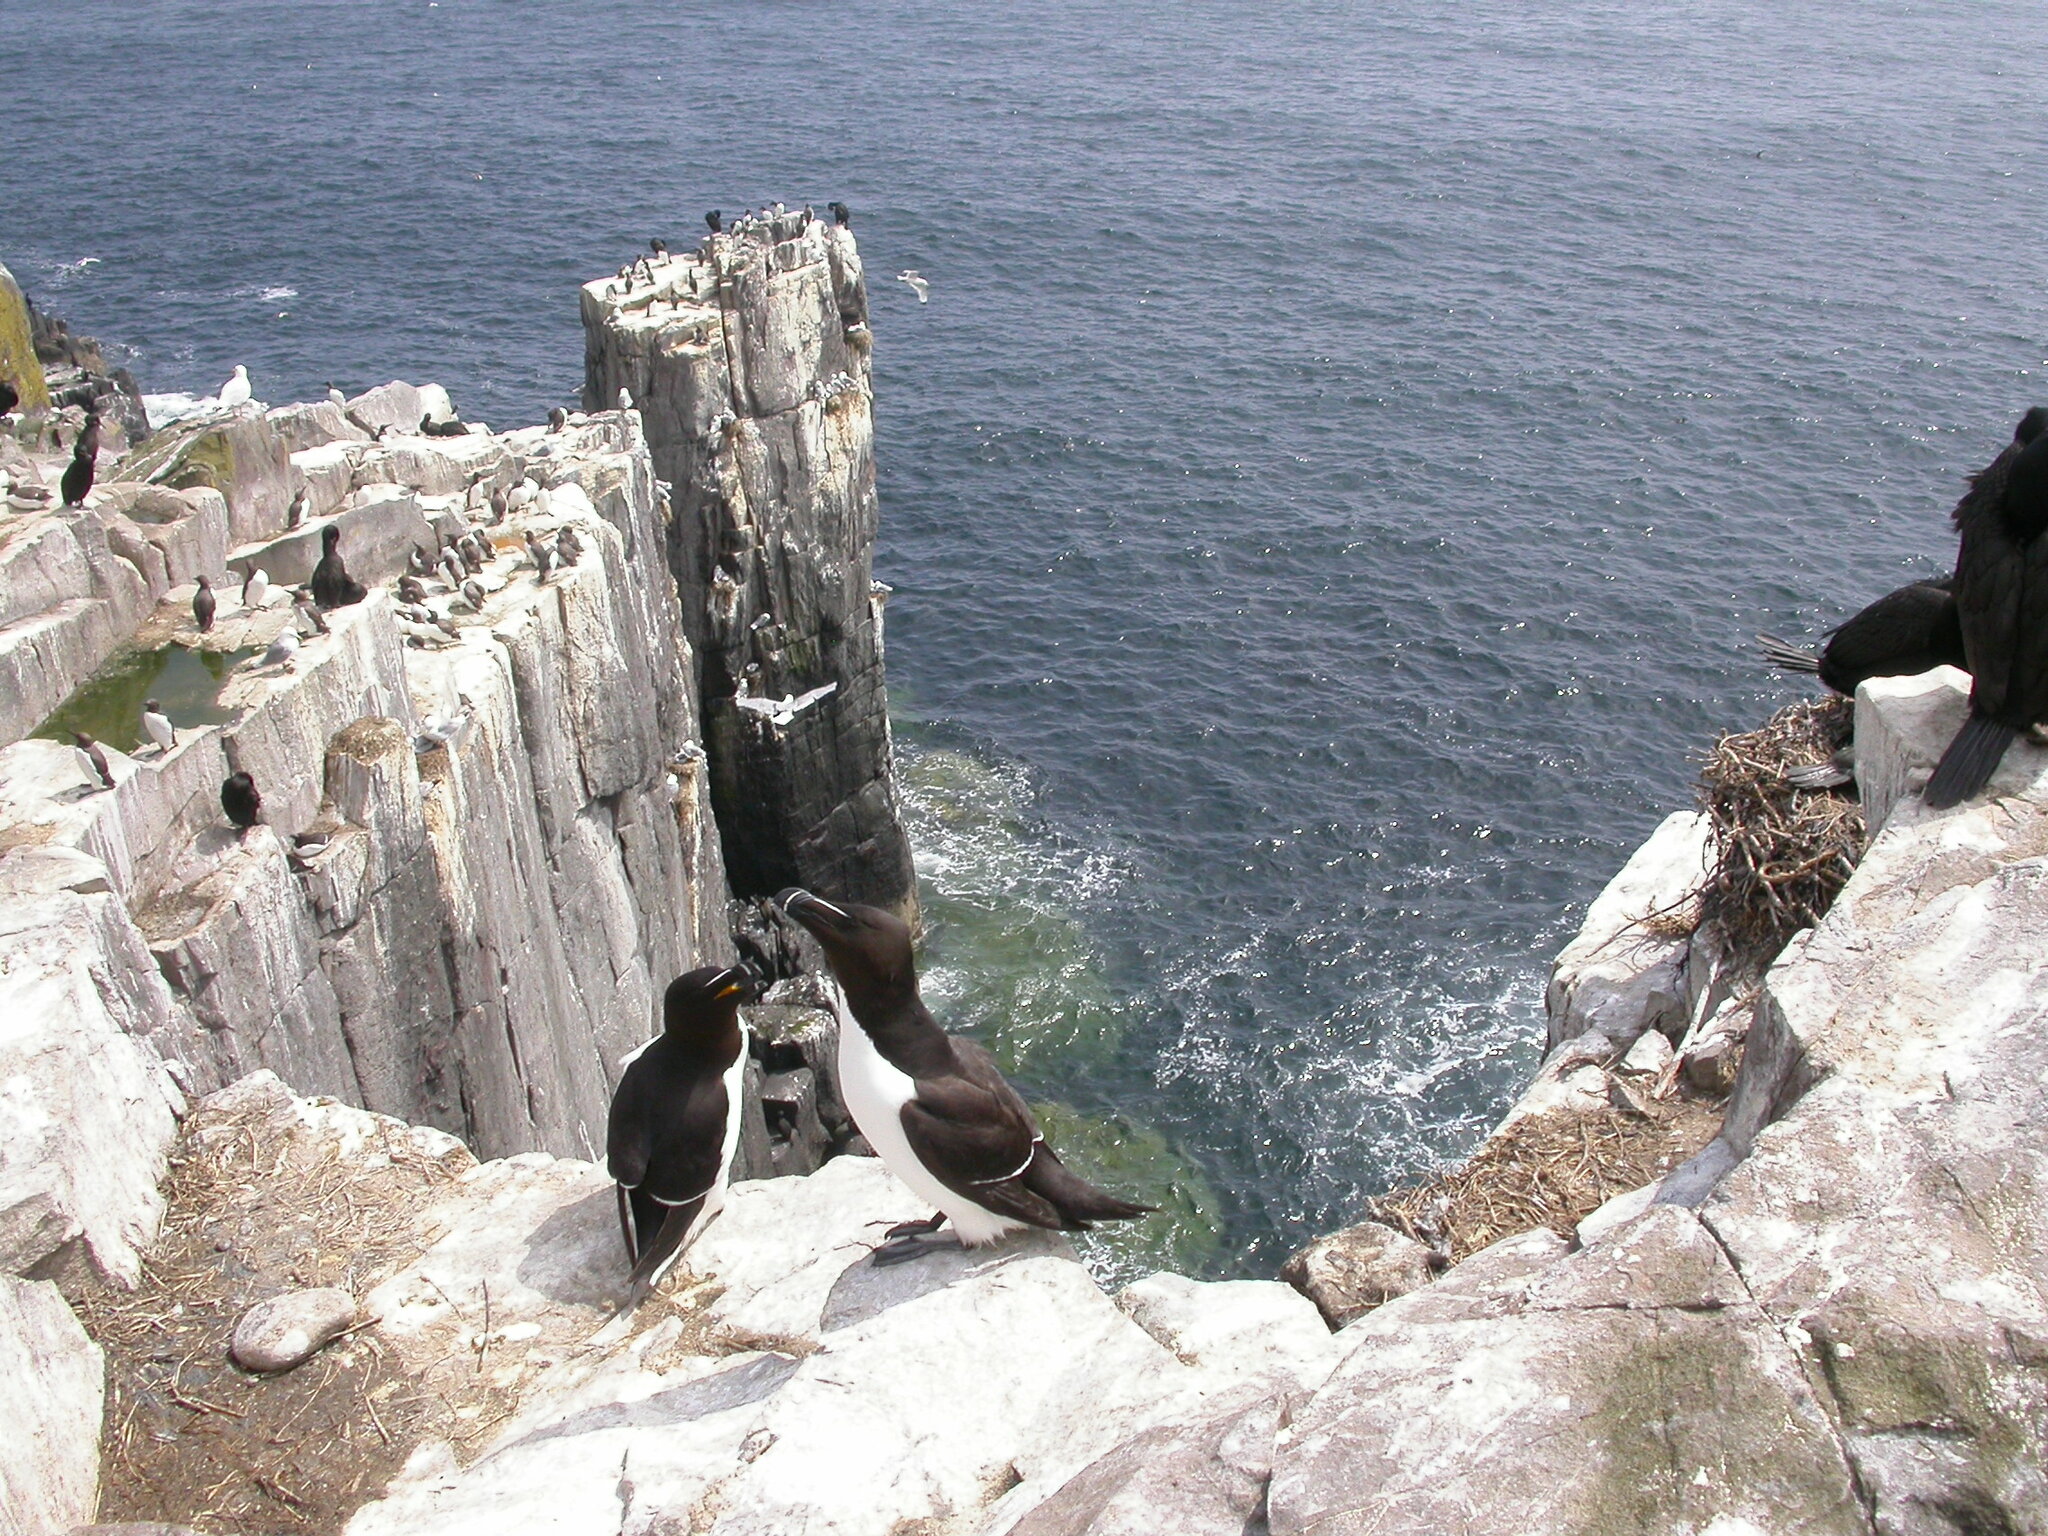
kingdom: Animalia
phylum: Chordata
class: Aves
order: Charadriiformes
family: Alcidae
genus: Alca
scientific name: Alca torda
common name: Razorbill
